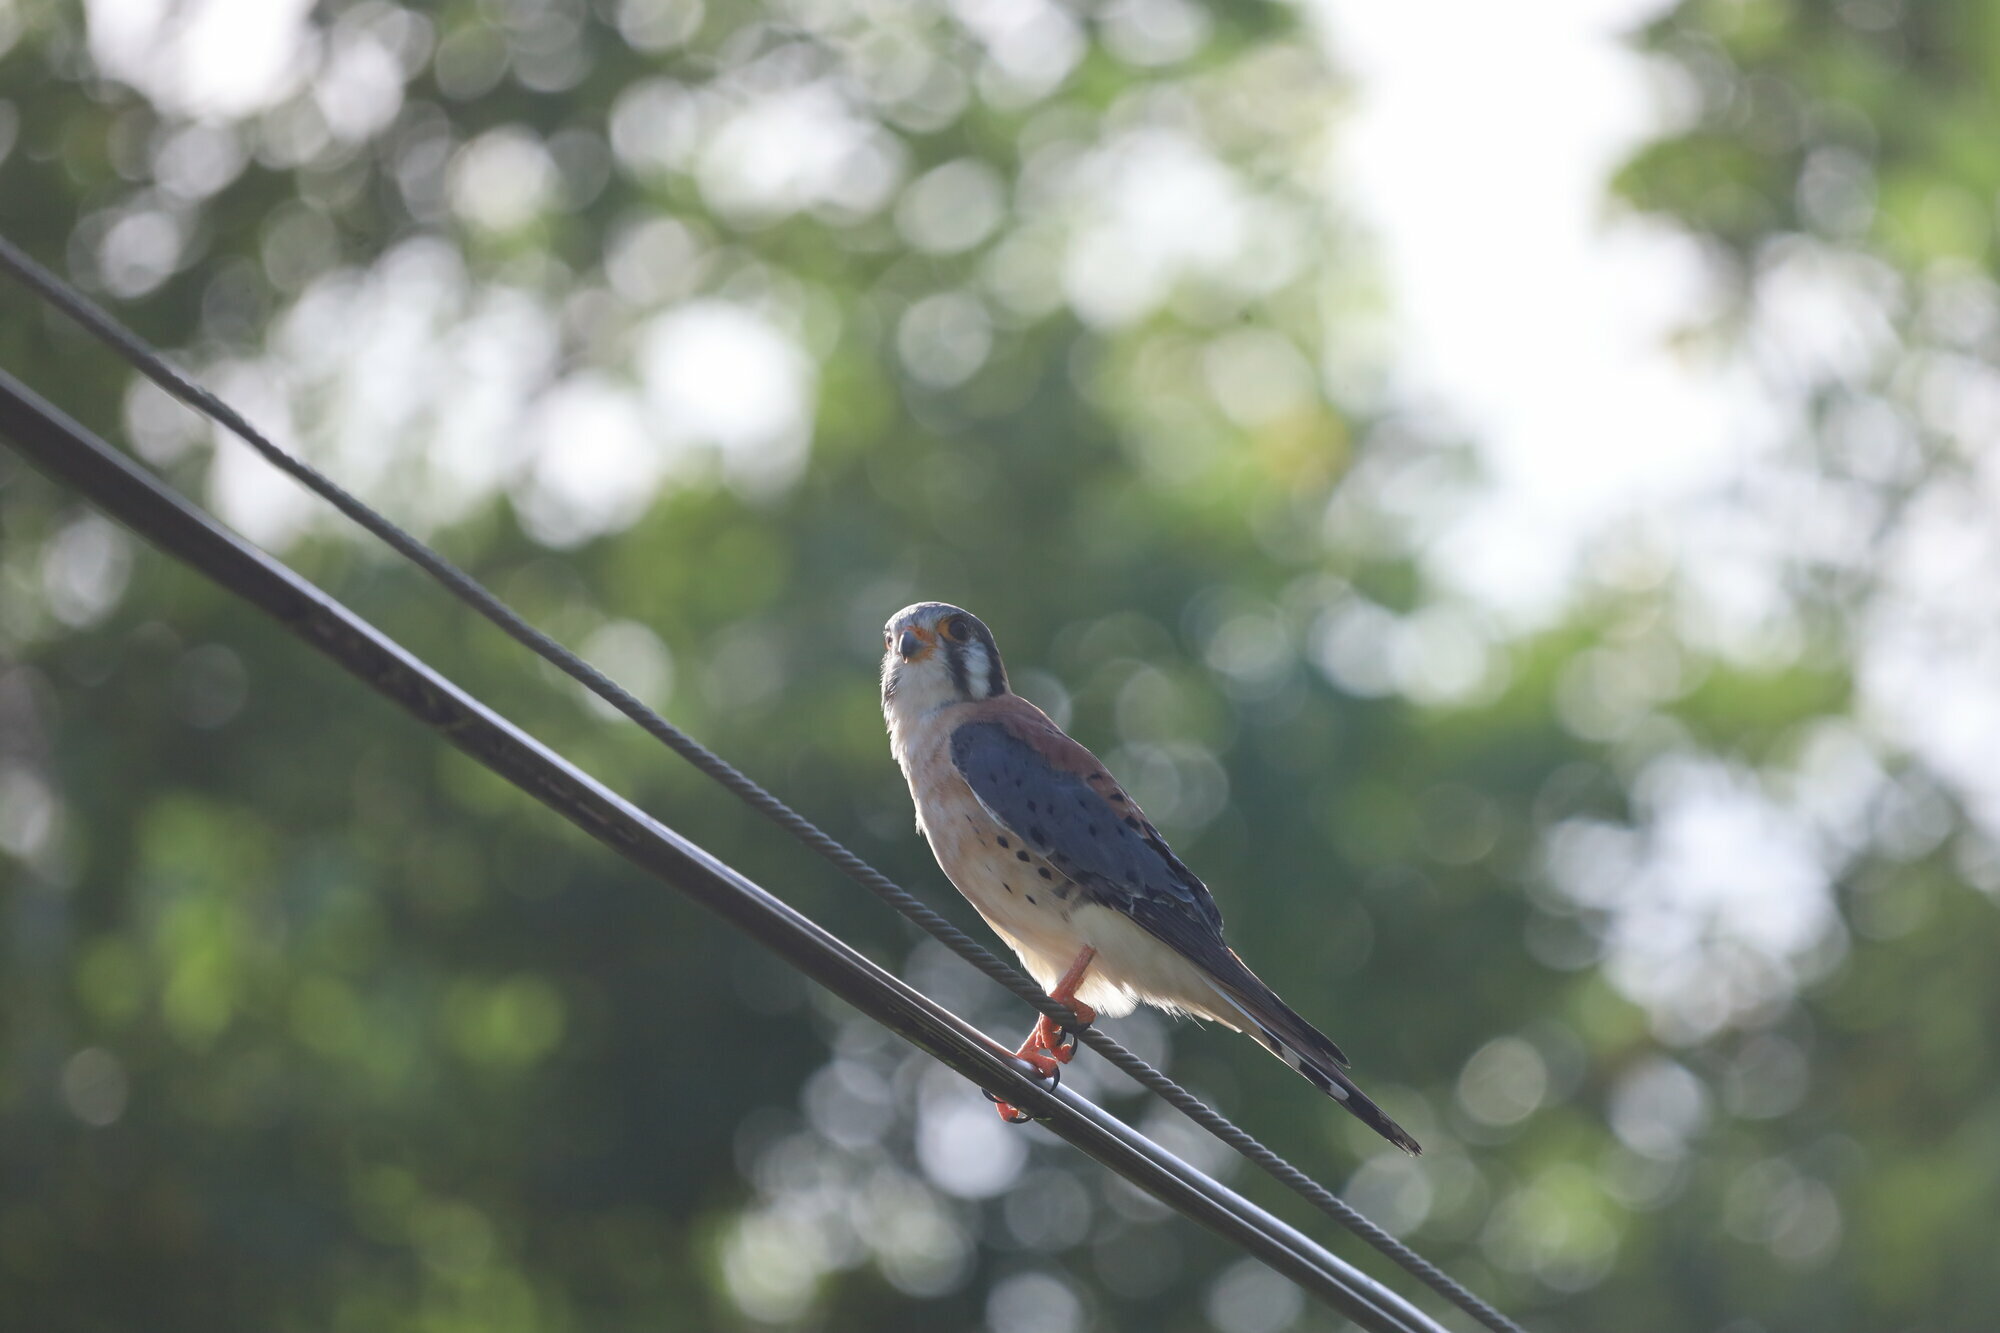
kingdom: Animalia
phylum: Chordata
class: Aves
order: Falconiformes
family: Falconidae
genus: Falco
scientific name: Falco sparverius
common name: American kestrel
